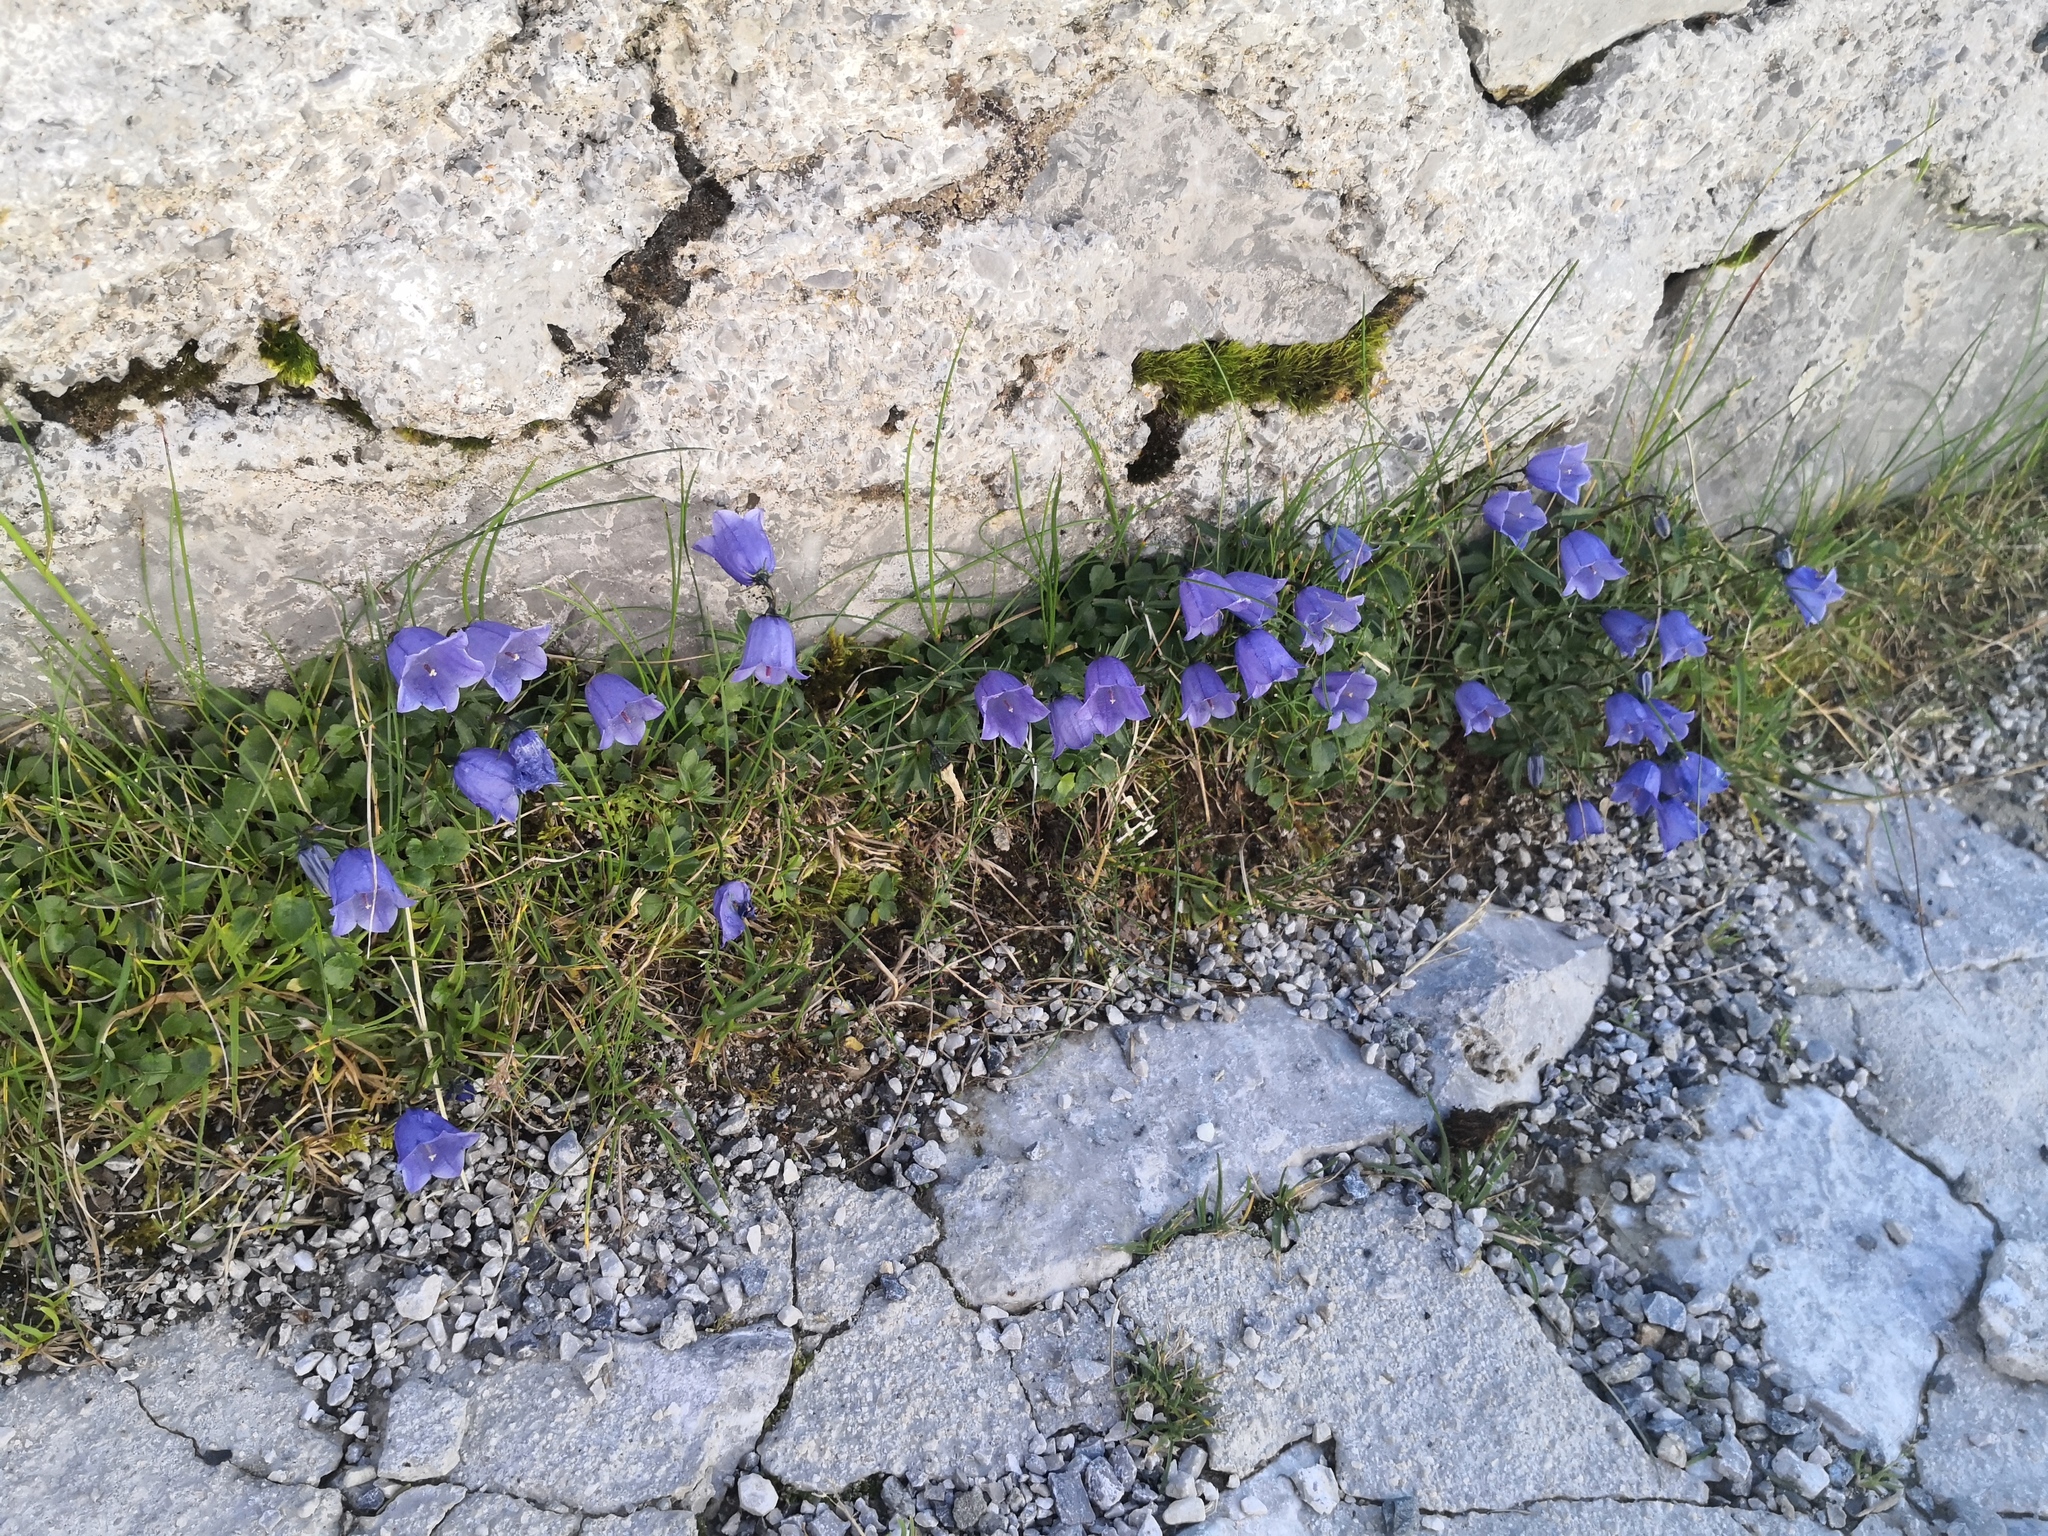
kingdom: Plantae
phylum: Tracheophyta
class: Magnoliopsida
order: Asterales
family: Campanulaceae
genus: Campanula
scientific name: Campanula cochleariifolia
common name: Fairies'-thimbles
